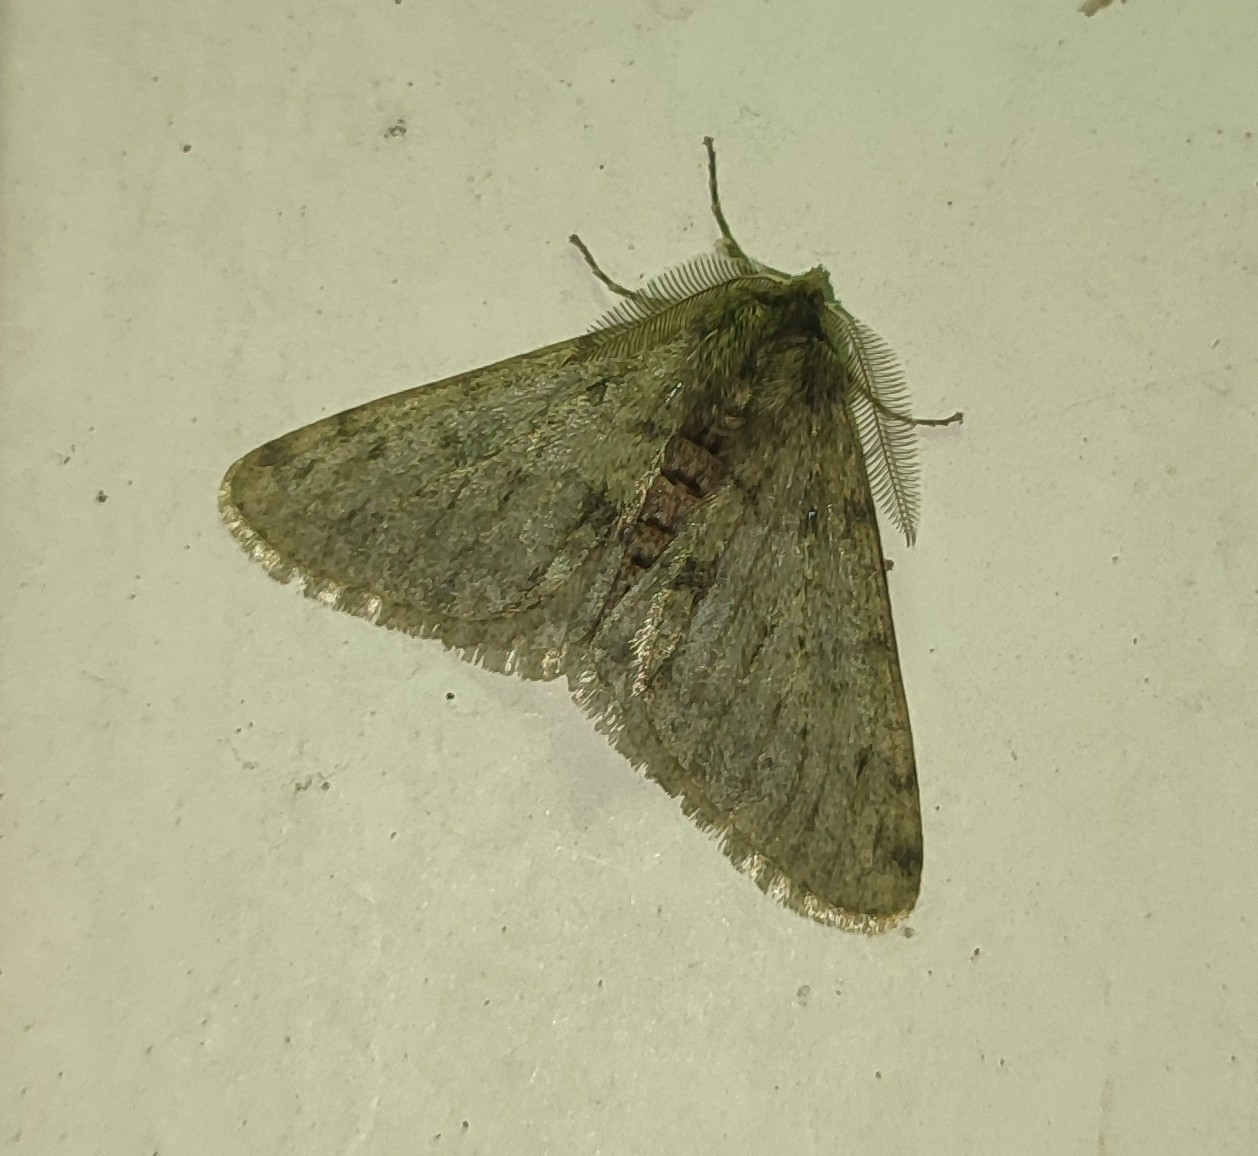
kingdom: Animalia
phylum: Arthropoda
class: Insecta
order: Lepidoptera
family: Geometridae
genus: Phigalia
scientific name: Phigalia pilosaria
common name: Pale brindled beauty
